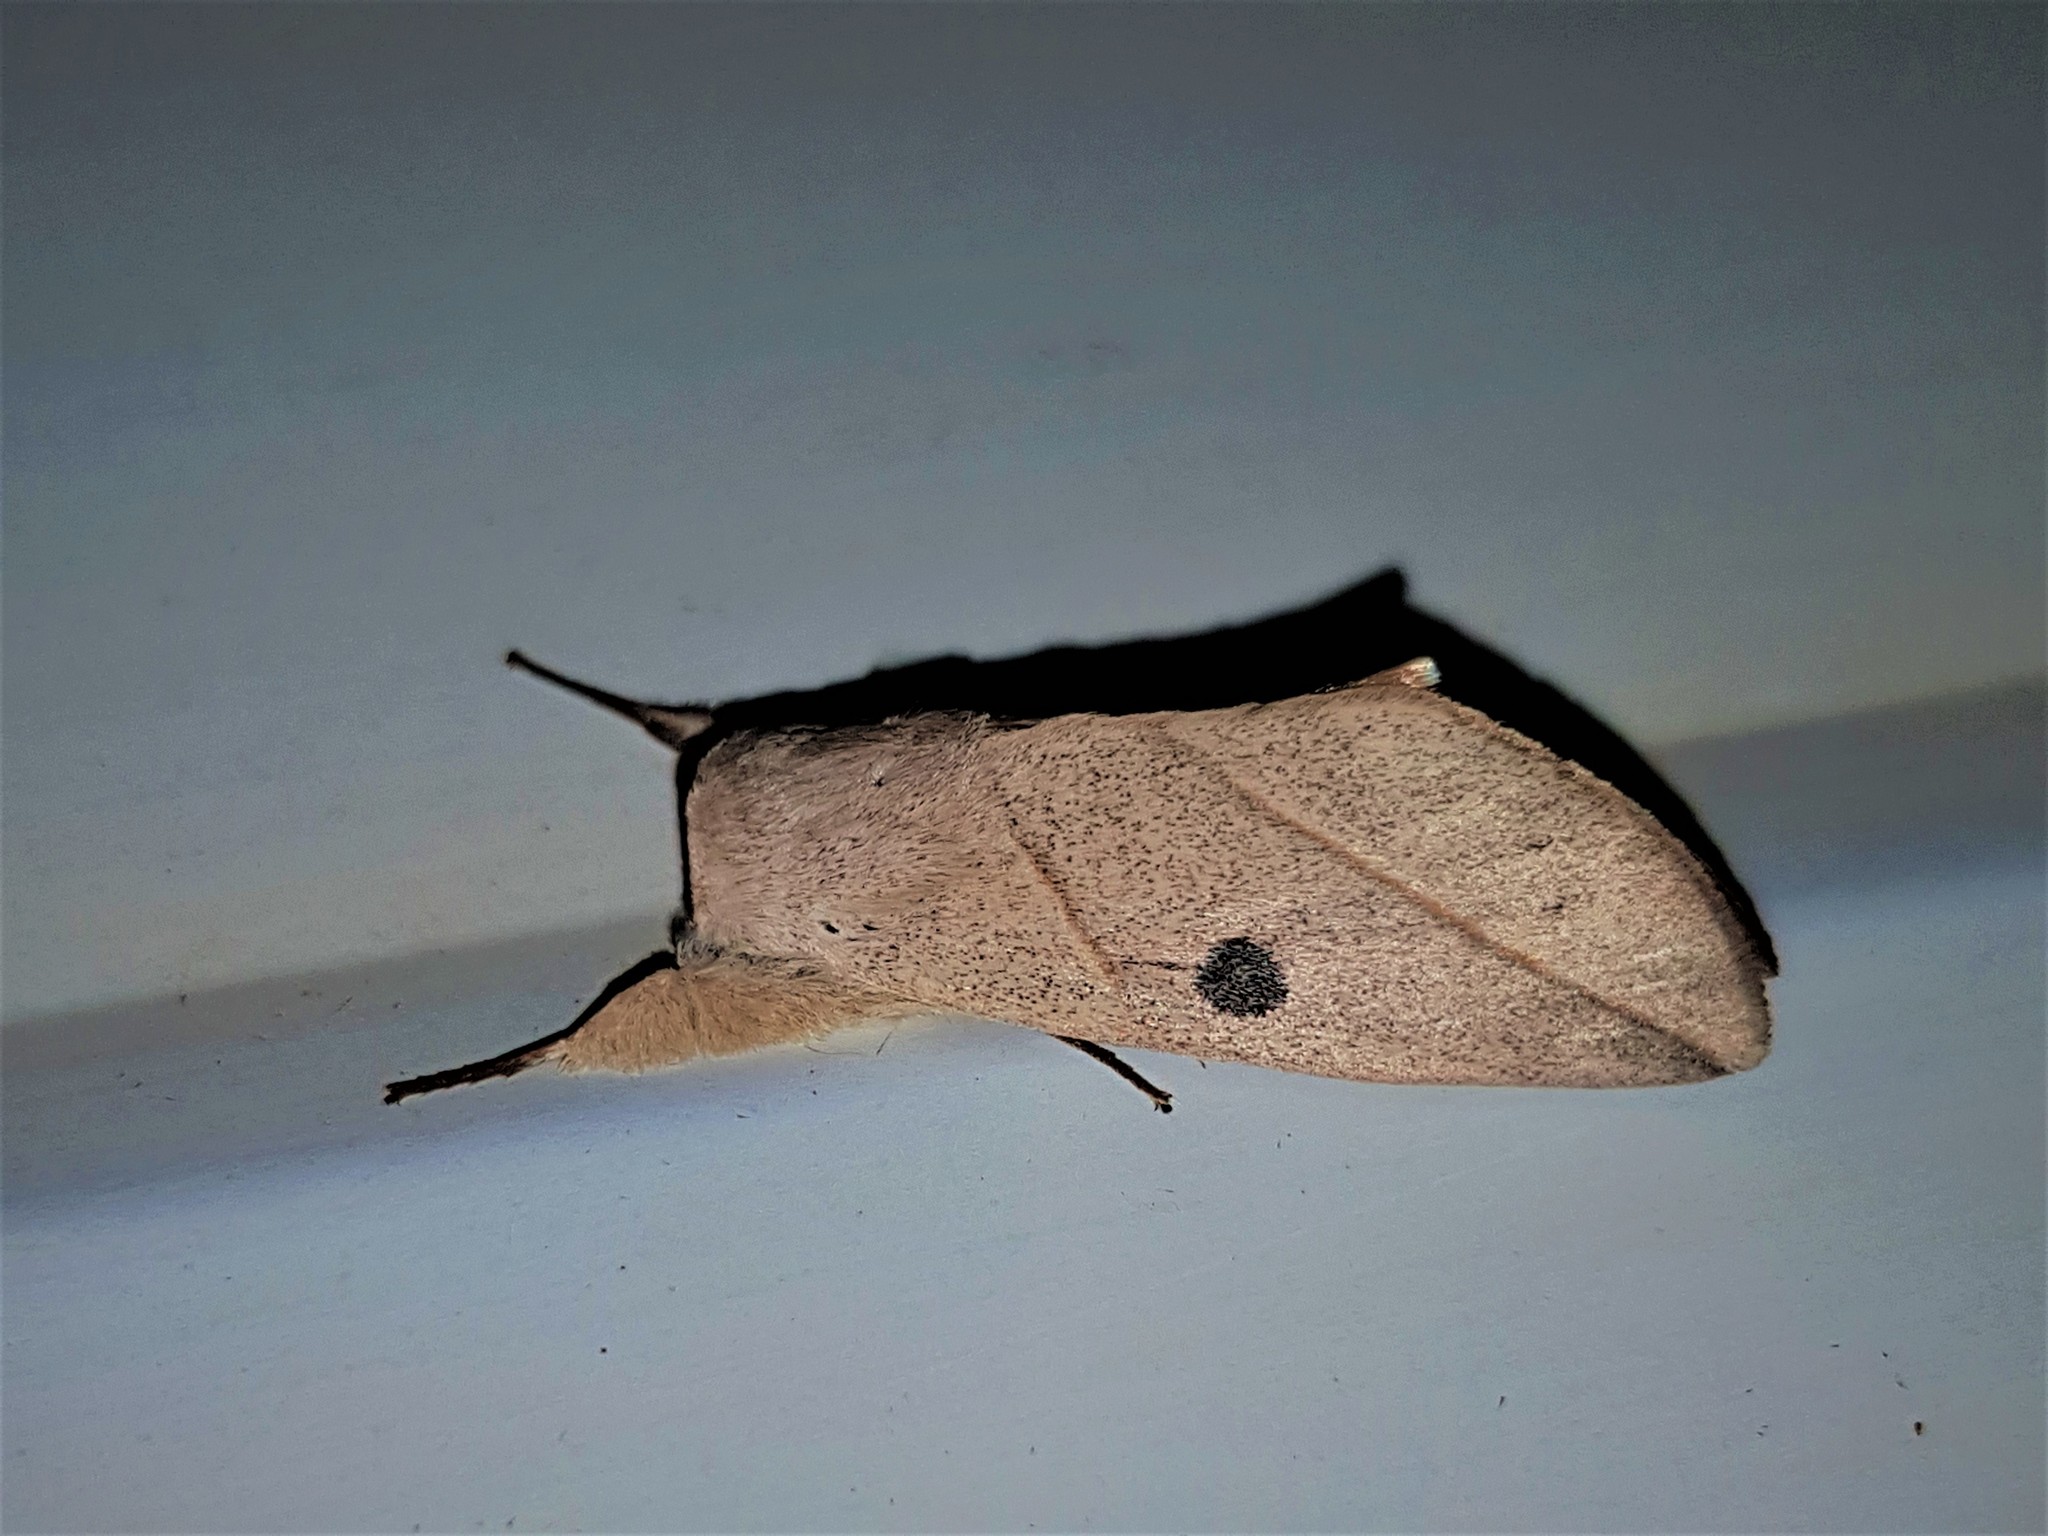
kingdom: Animalia
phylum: Arthropoda
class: Insecta
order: Lepidoptera
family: Notodontidae
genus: Hemiceras
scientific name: Hemiceras lissanella
